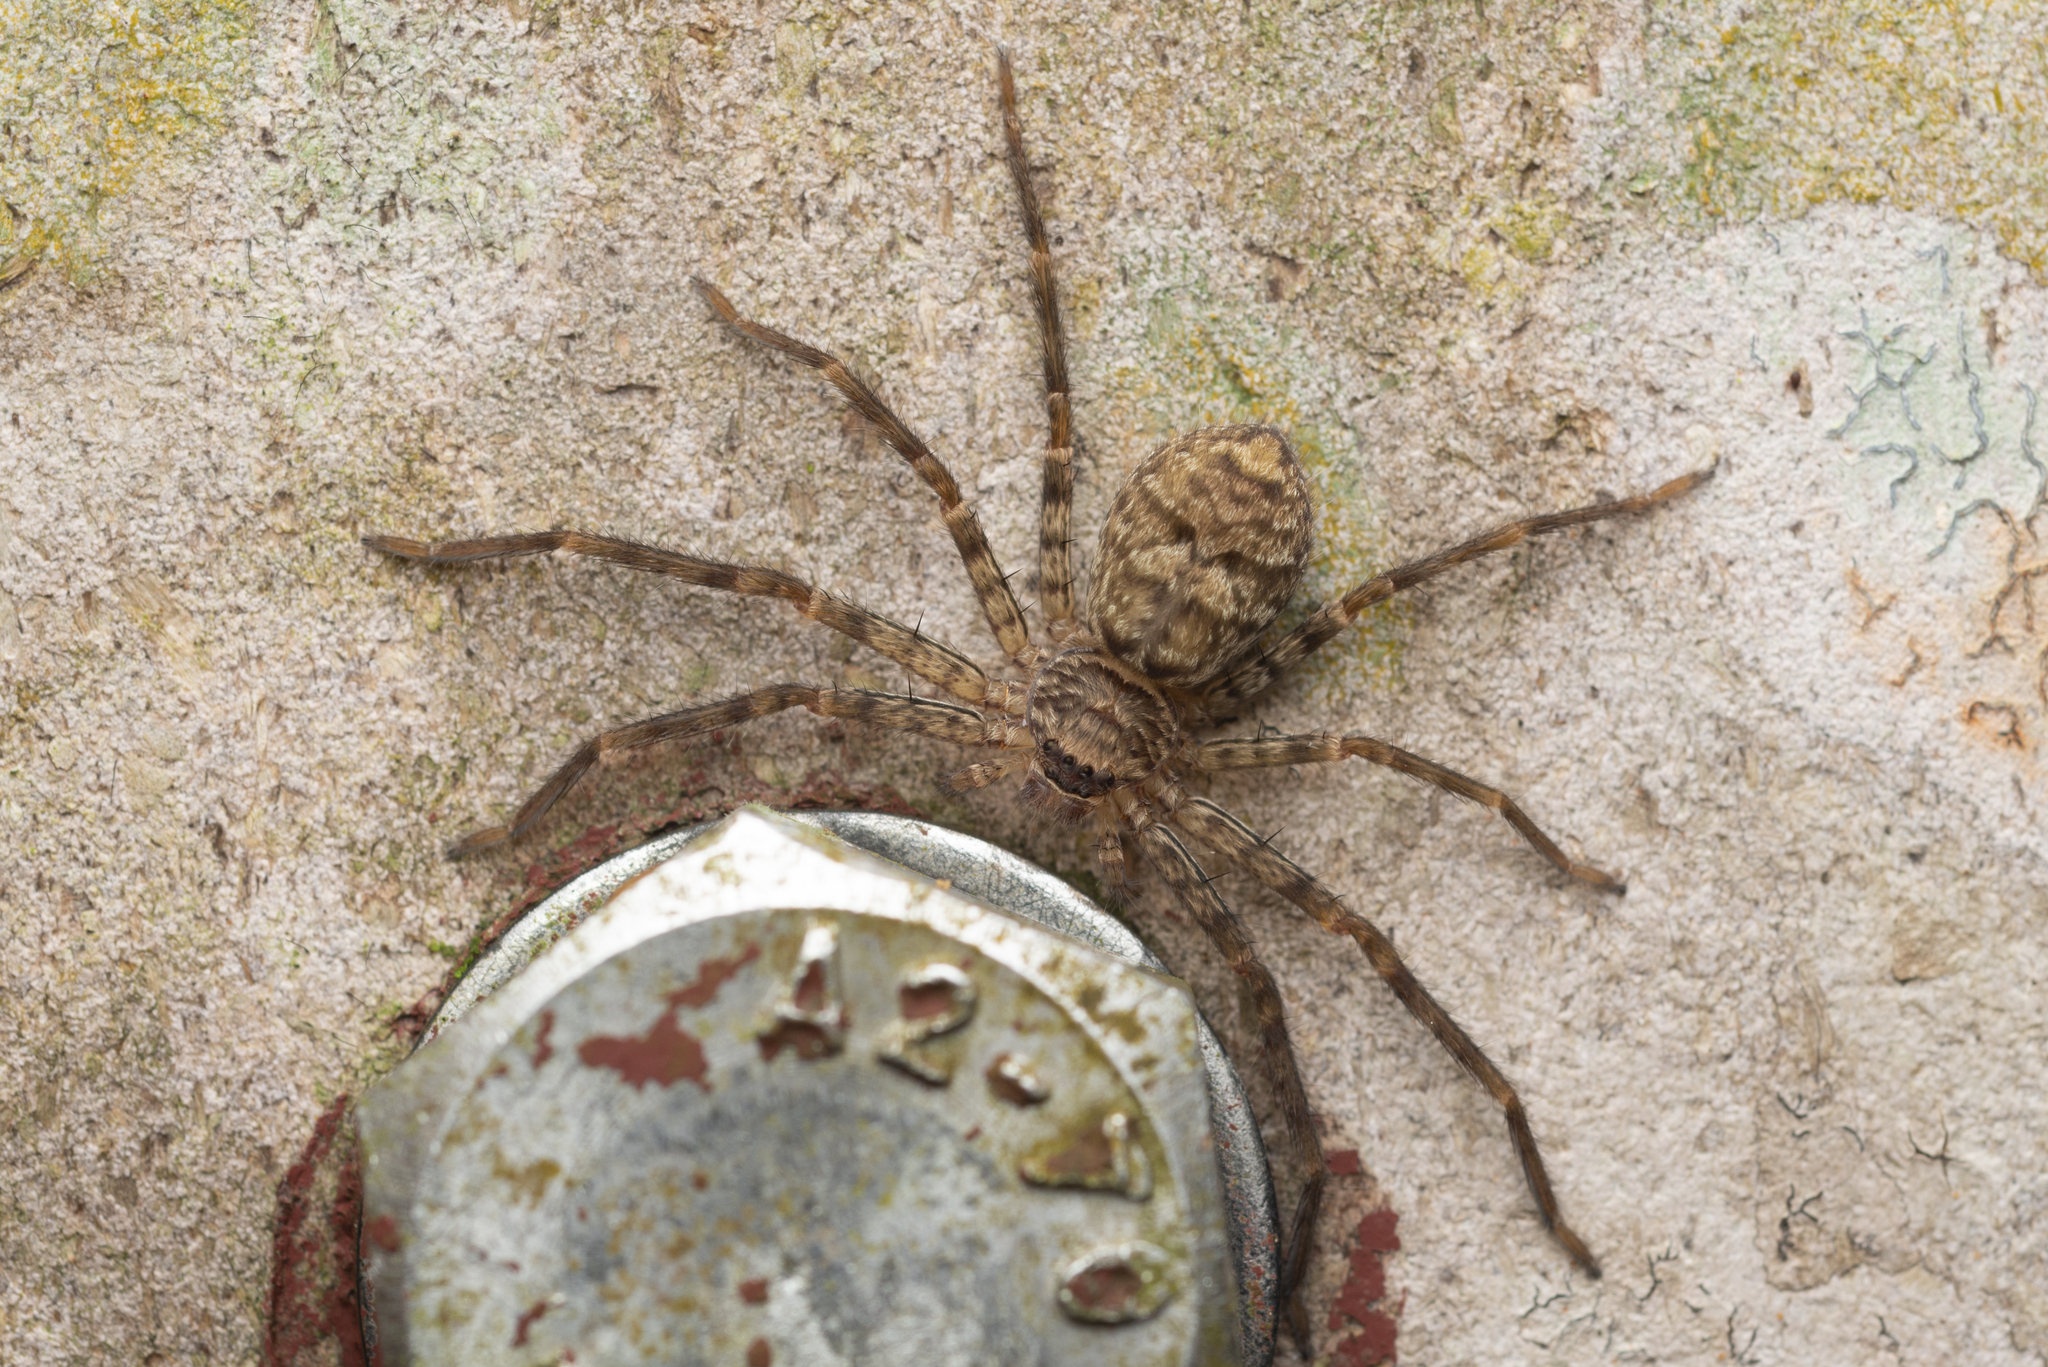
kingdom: Animalia
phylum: Arthropoda
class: Arachnida
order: Araneae
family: Sparassidae
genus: Heteropoda
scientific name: Heteropoda venatoria
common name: Huntsman spider
